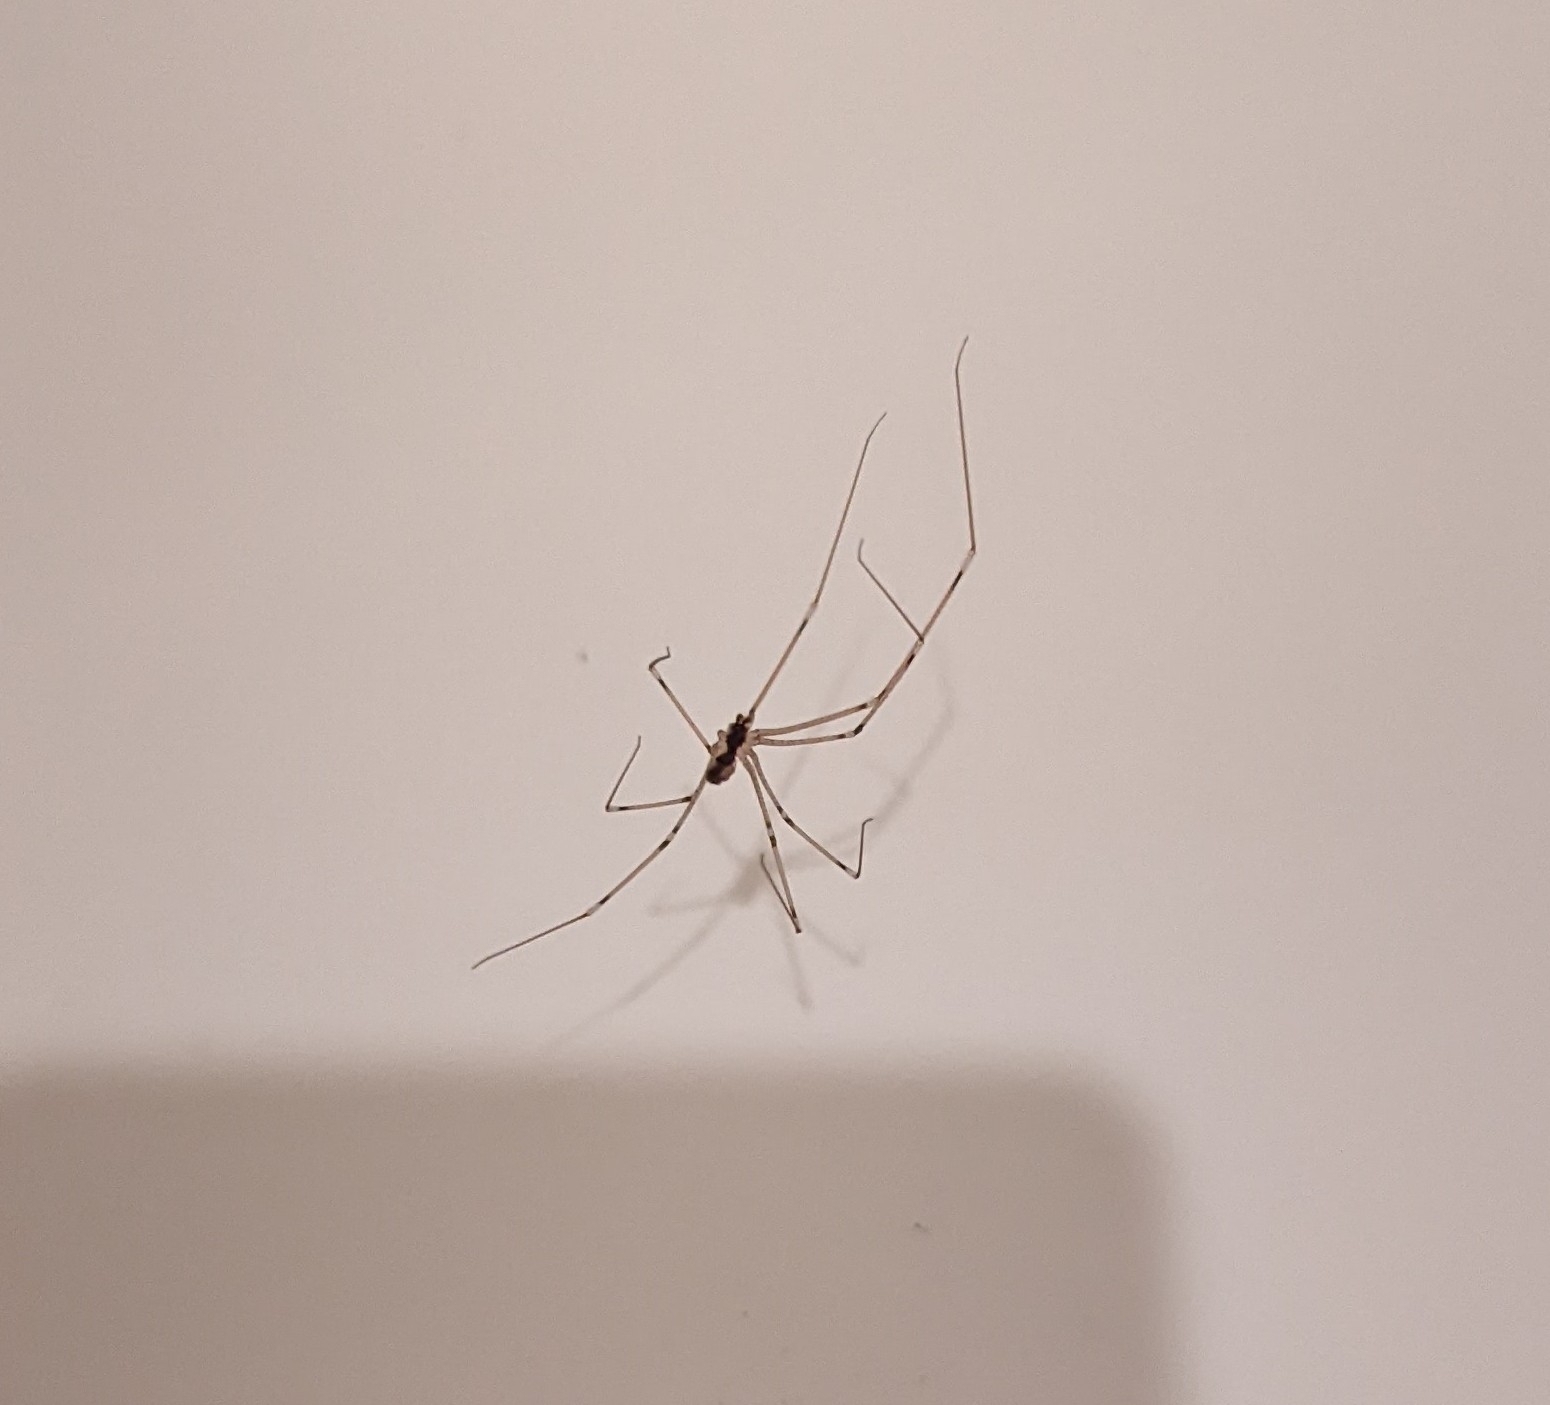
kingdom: Animalia
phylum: Arthropoda
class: Arachnida
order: Araneae
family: Pholcidae
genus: Holocnemus
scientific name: Holocnemus pluchei
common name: Marbled cellar spider
